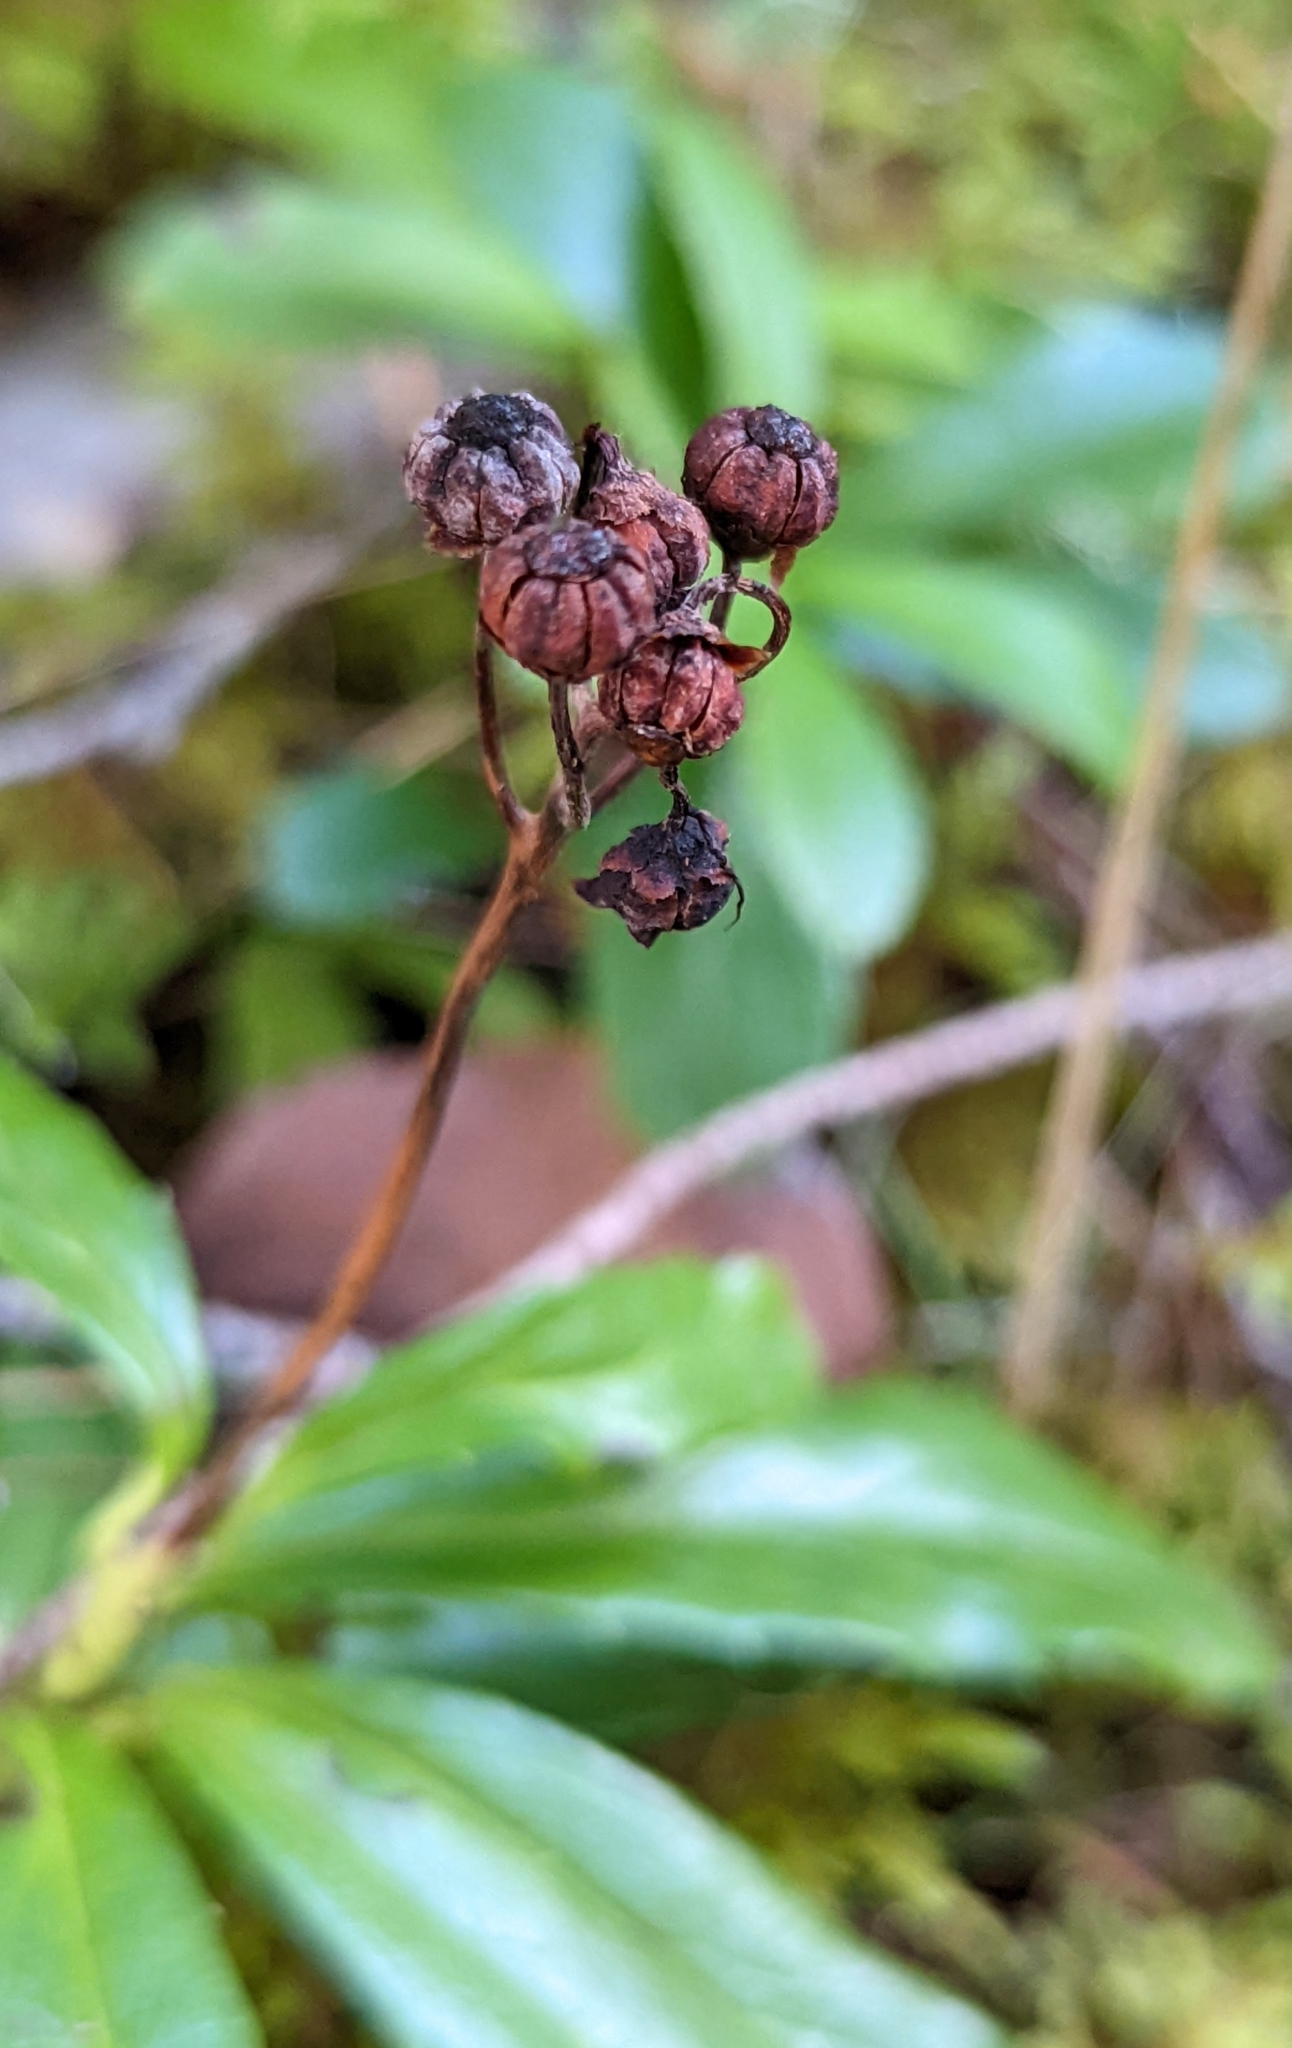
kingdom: Plantae
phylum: Tracheophyta
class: Magnoliopsida
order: Ericales
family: Ericaceae
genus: Chimaphila
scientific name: Chimaphila umbellata
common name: Pipsissewa
